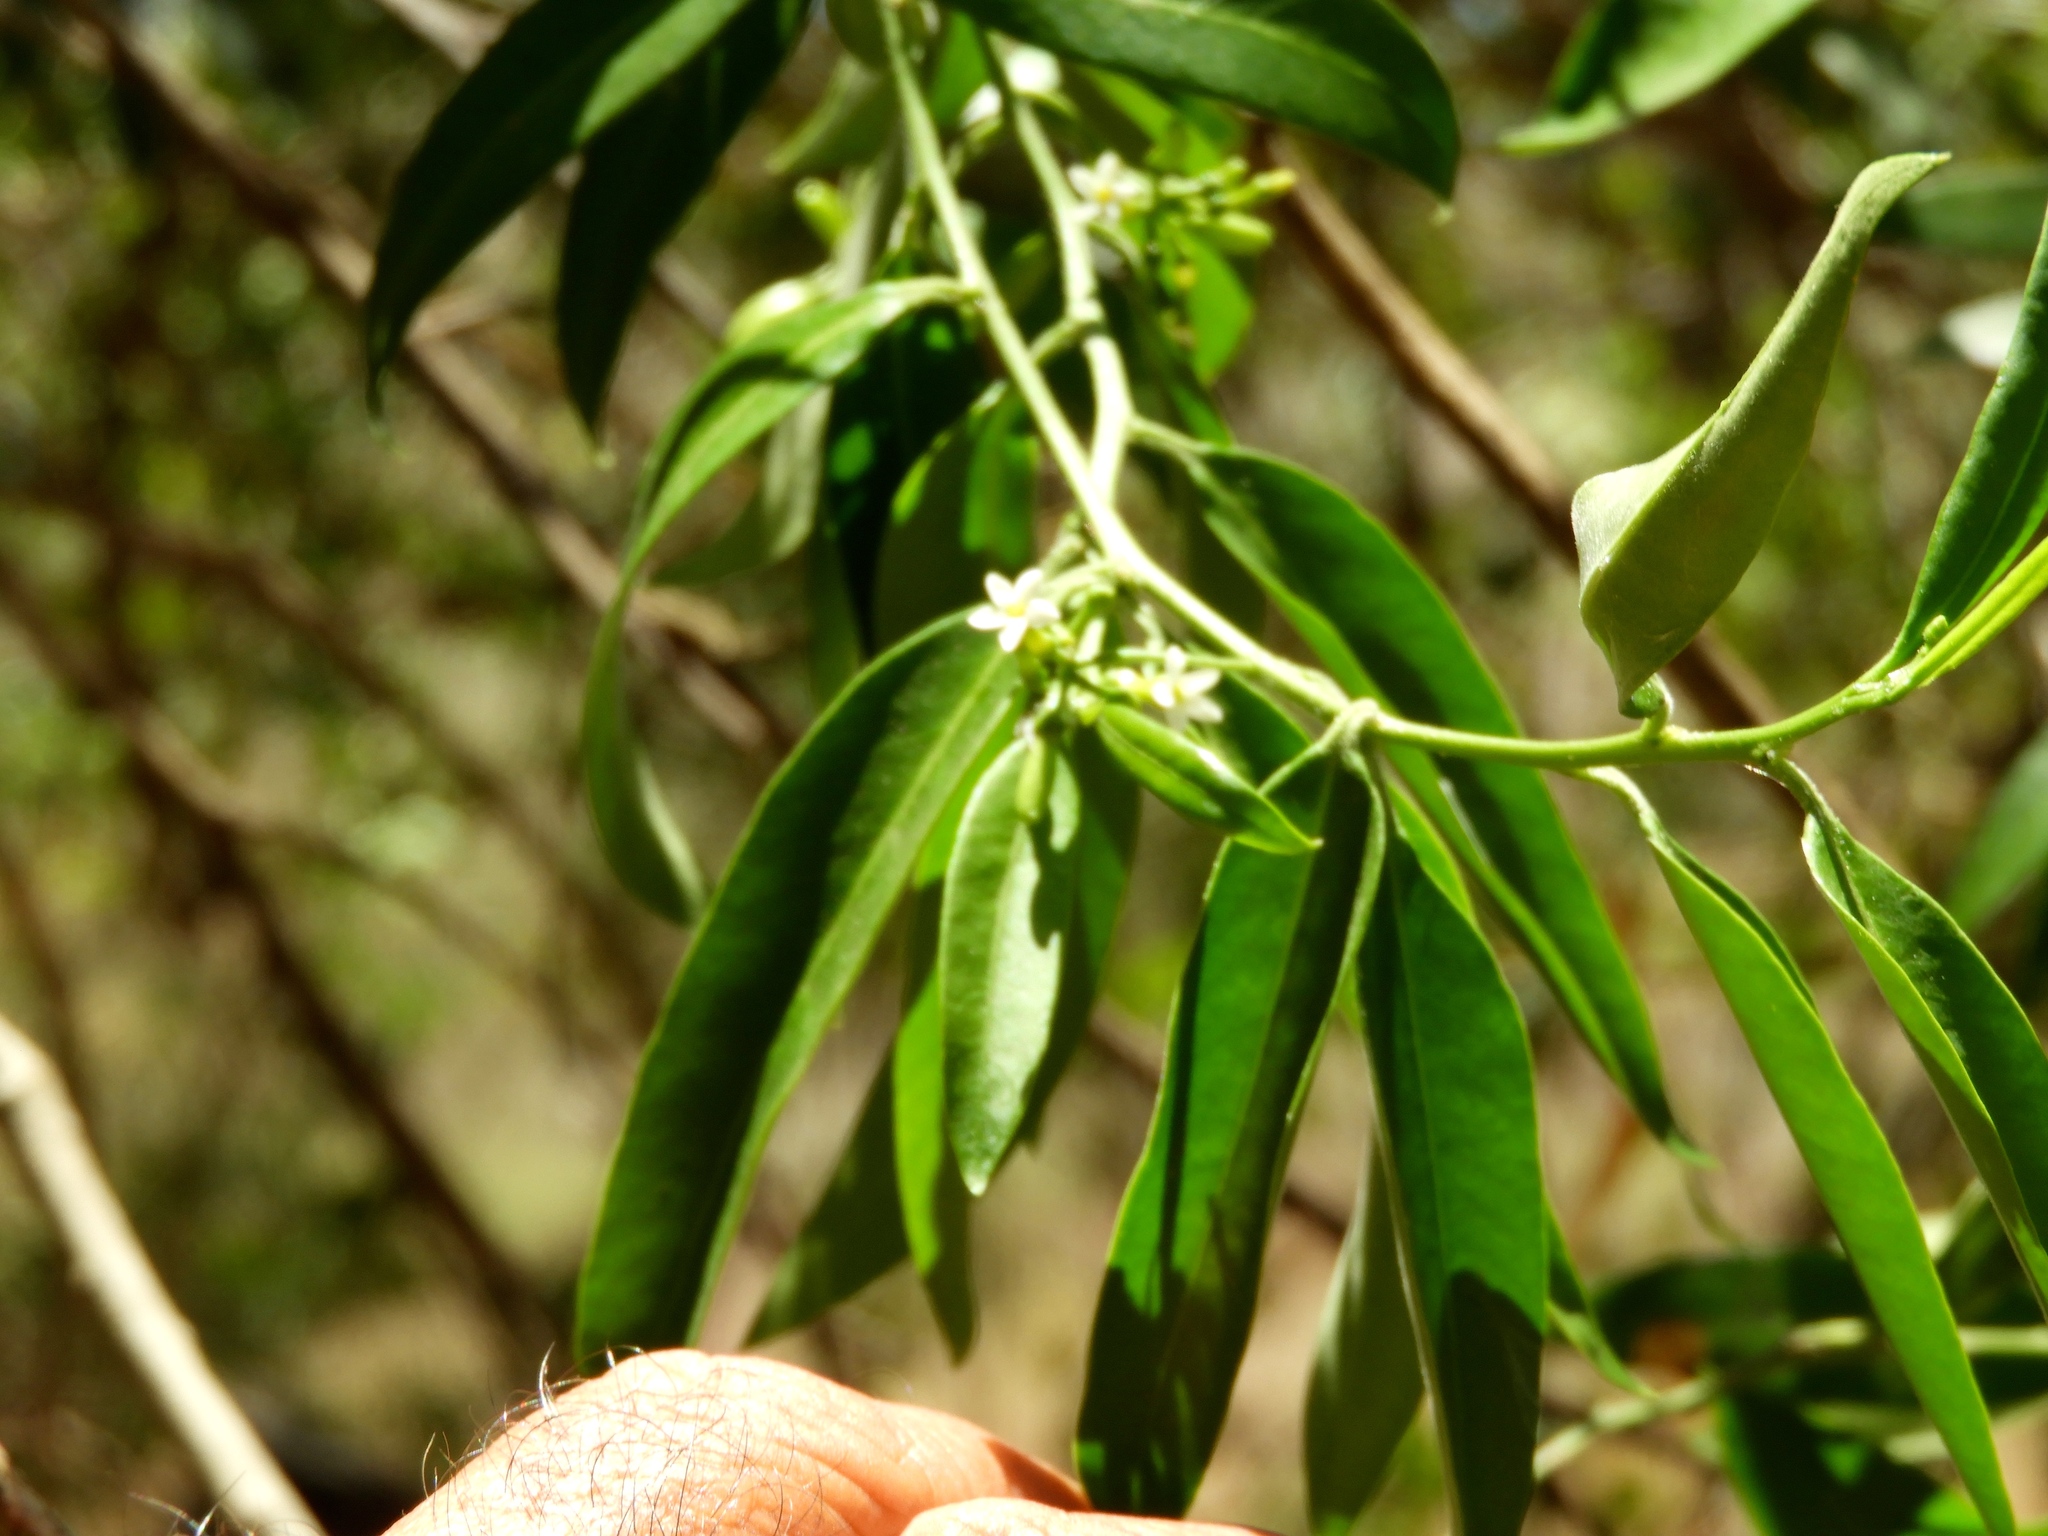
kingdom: Plantae
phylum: Tracheophyta
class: Magnoliopsida
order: Gentianales
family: Apocynaceae
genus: Vallesia
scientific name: Vallesia glabra
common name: Pearlberry
